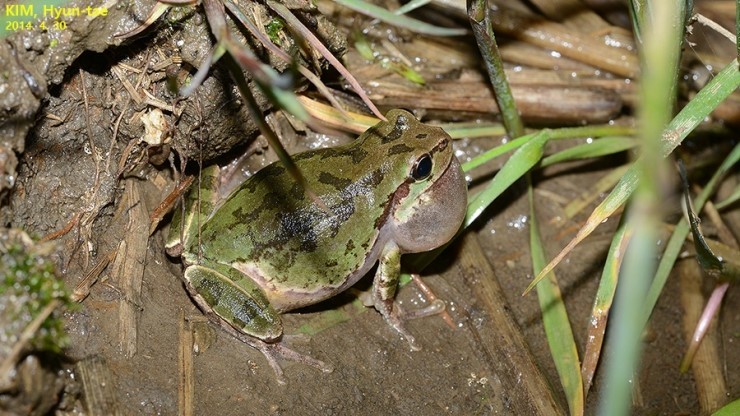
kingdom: Animalia
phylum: Chordata
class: Amphibia
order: Anura
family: Hylidae
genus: Dryophytes
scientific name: Dryophytes japonicus
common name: Japanese treefrog
